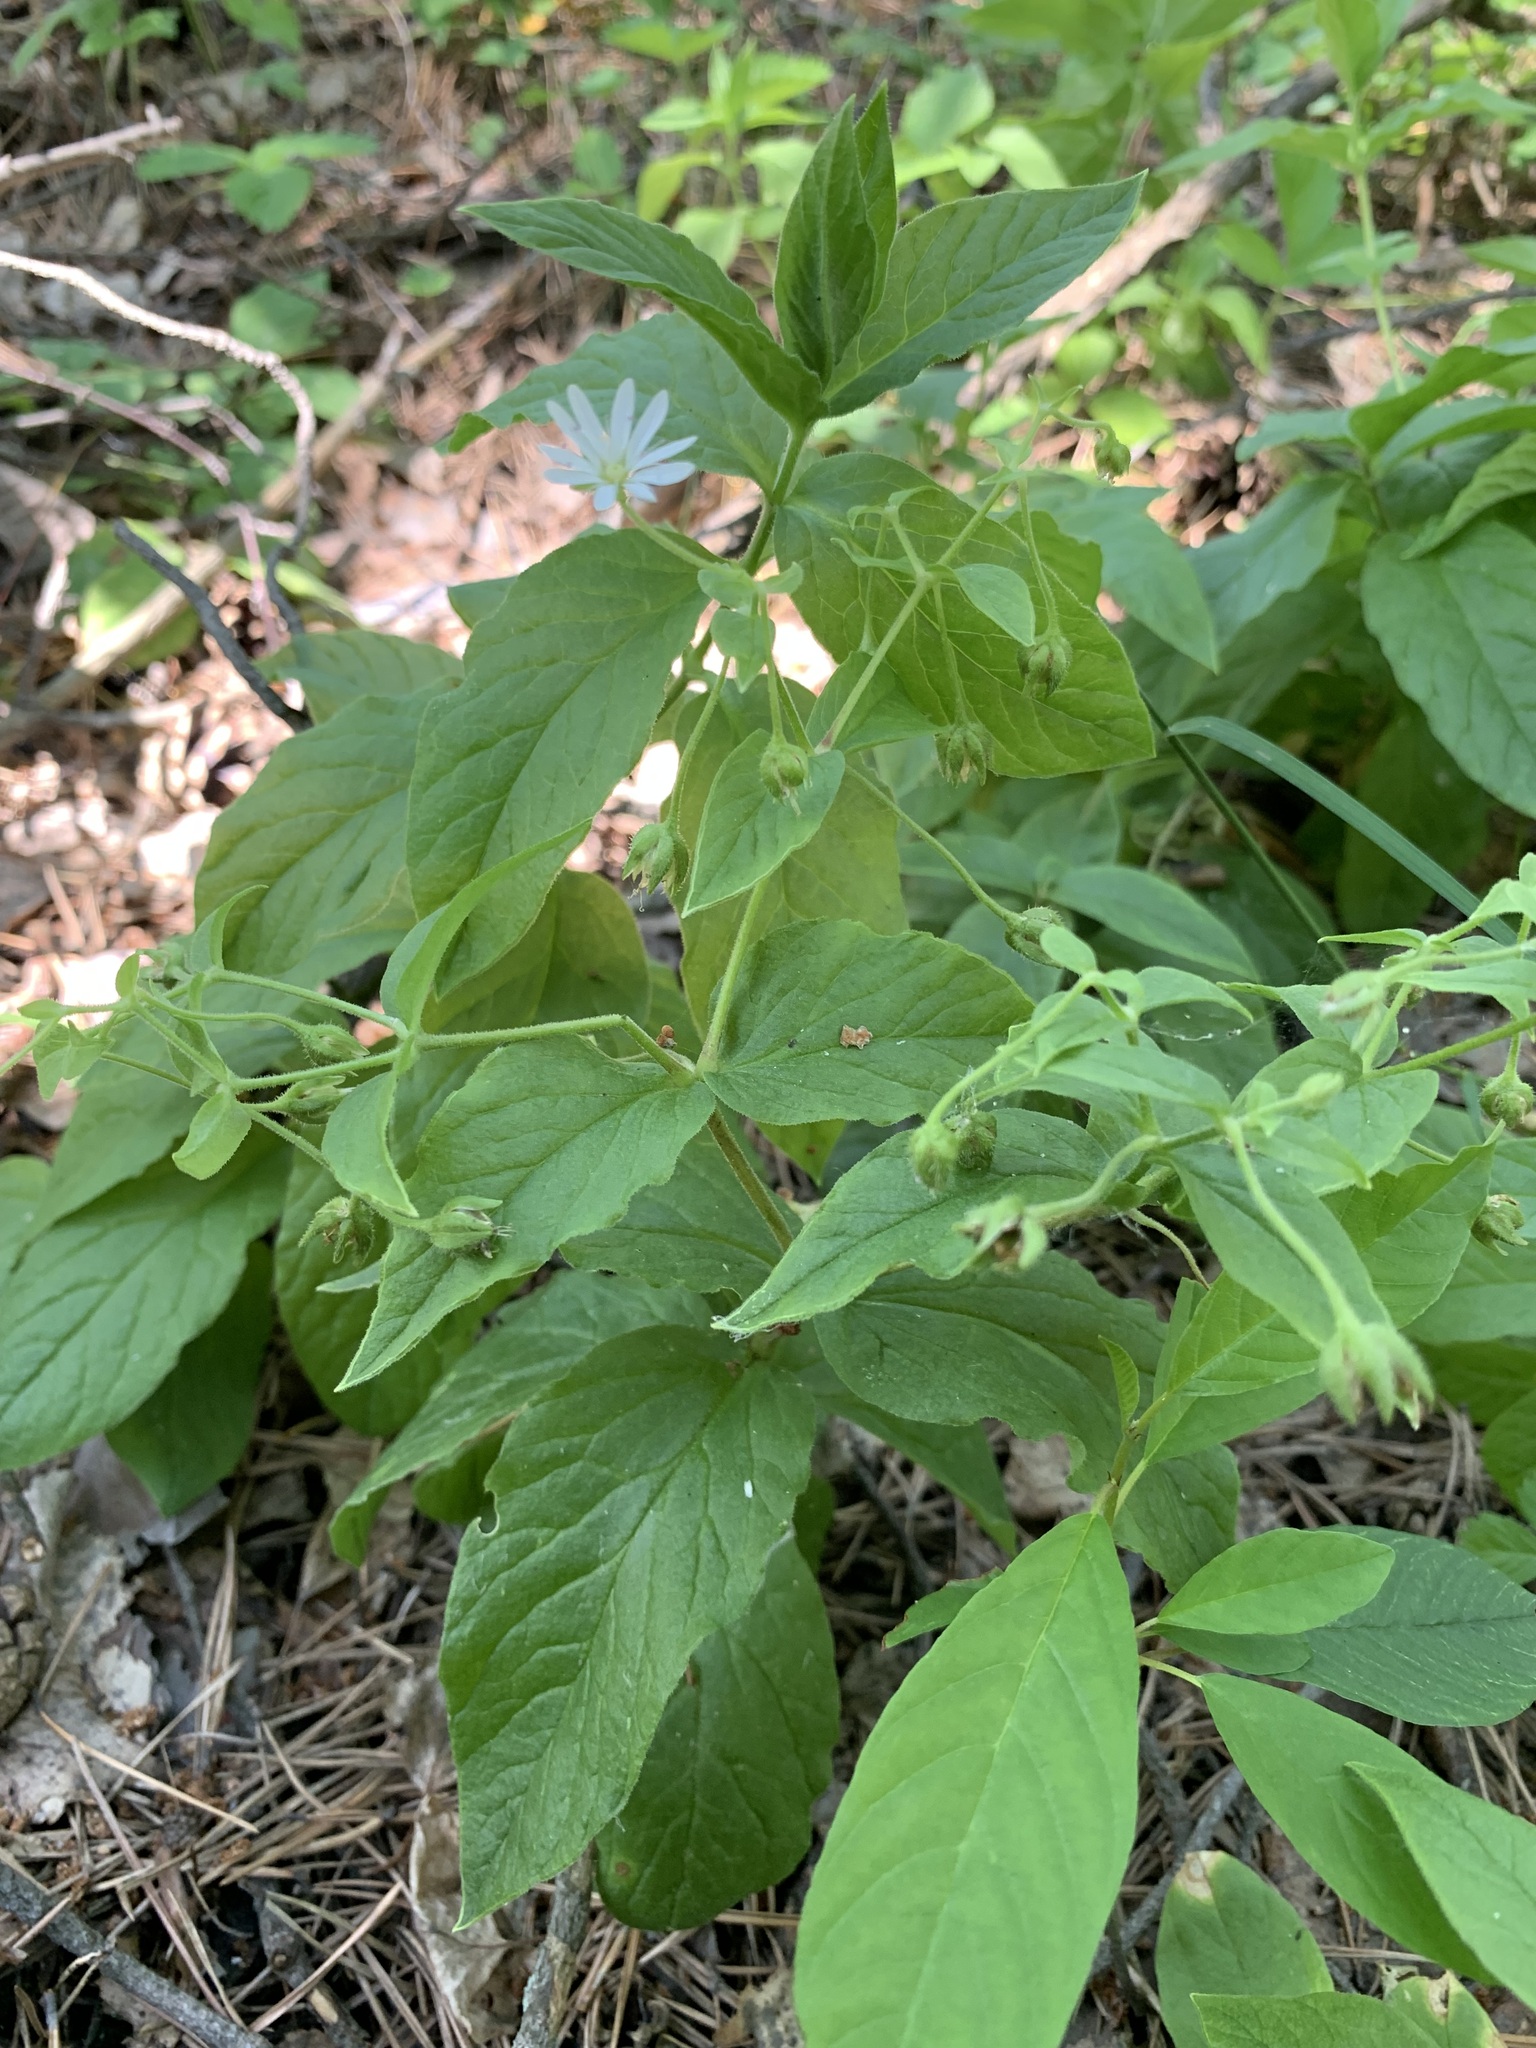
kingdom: Plantae
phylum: Tracheophyta
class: Magnoliopsida
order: Caryophyllales
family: Caryophyllaceae
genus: Stellaria
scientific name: Stellaria bungeana
